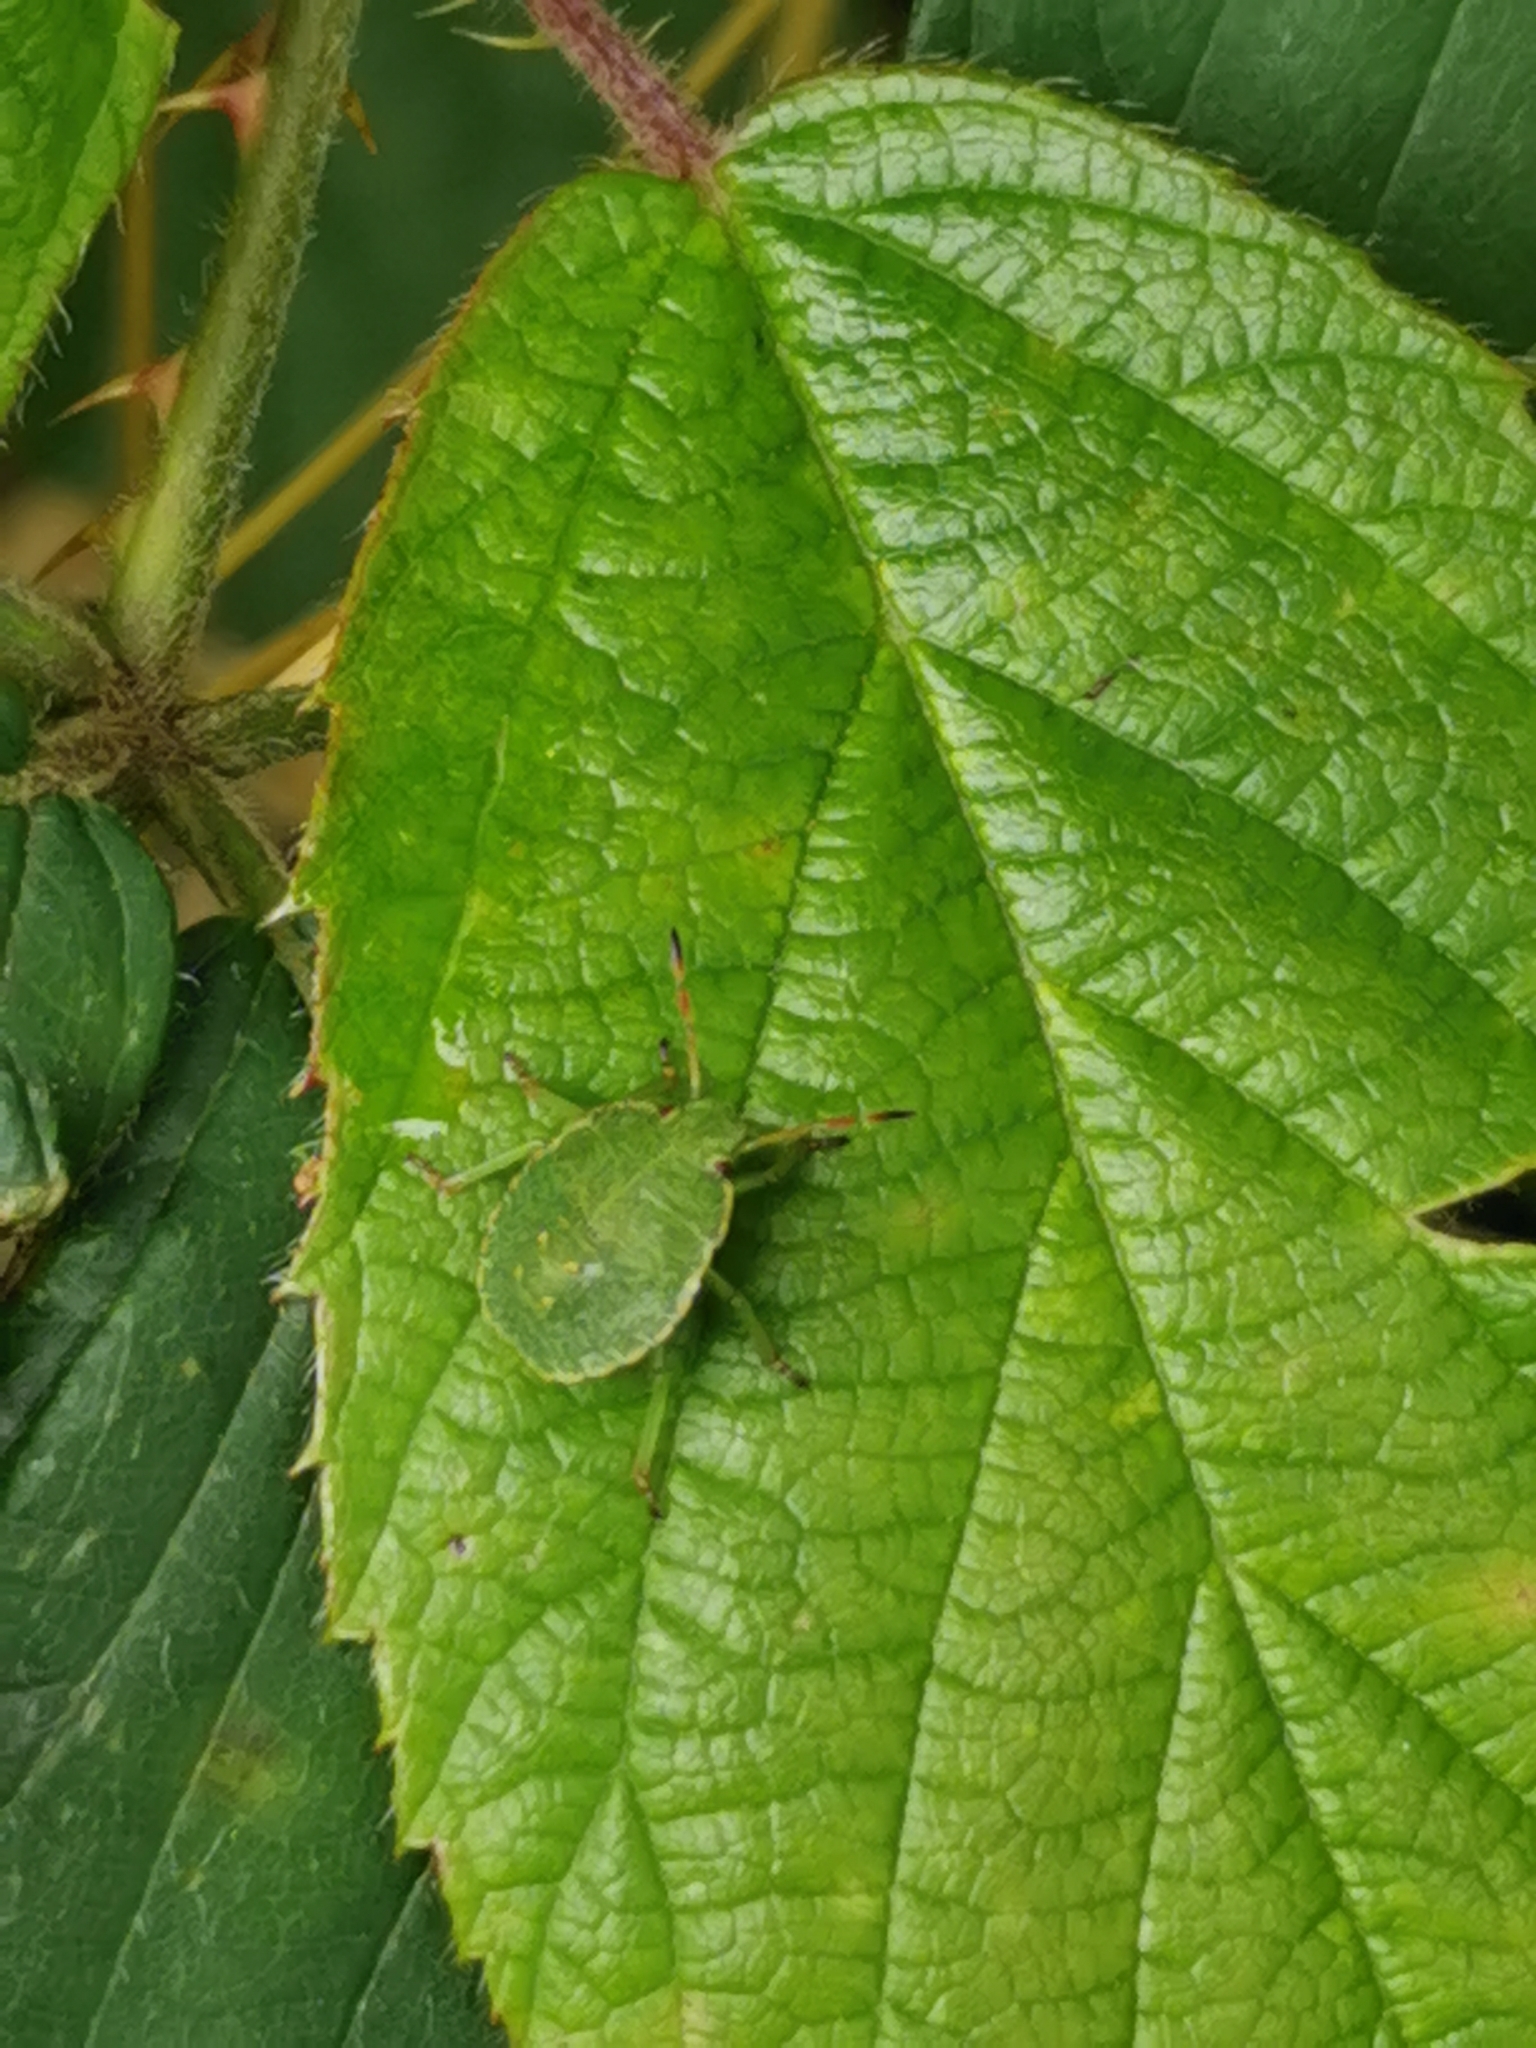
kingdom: Animalia
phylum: Arthropoda
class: Insecta
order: Hemiptera
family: Pentatomidae
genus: Palomena
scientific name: Palomena prasina
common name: Green shieldbug
